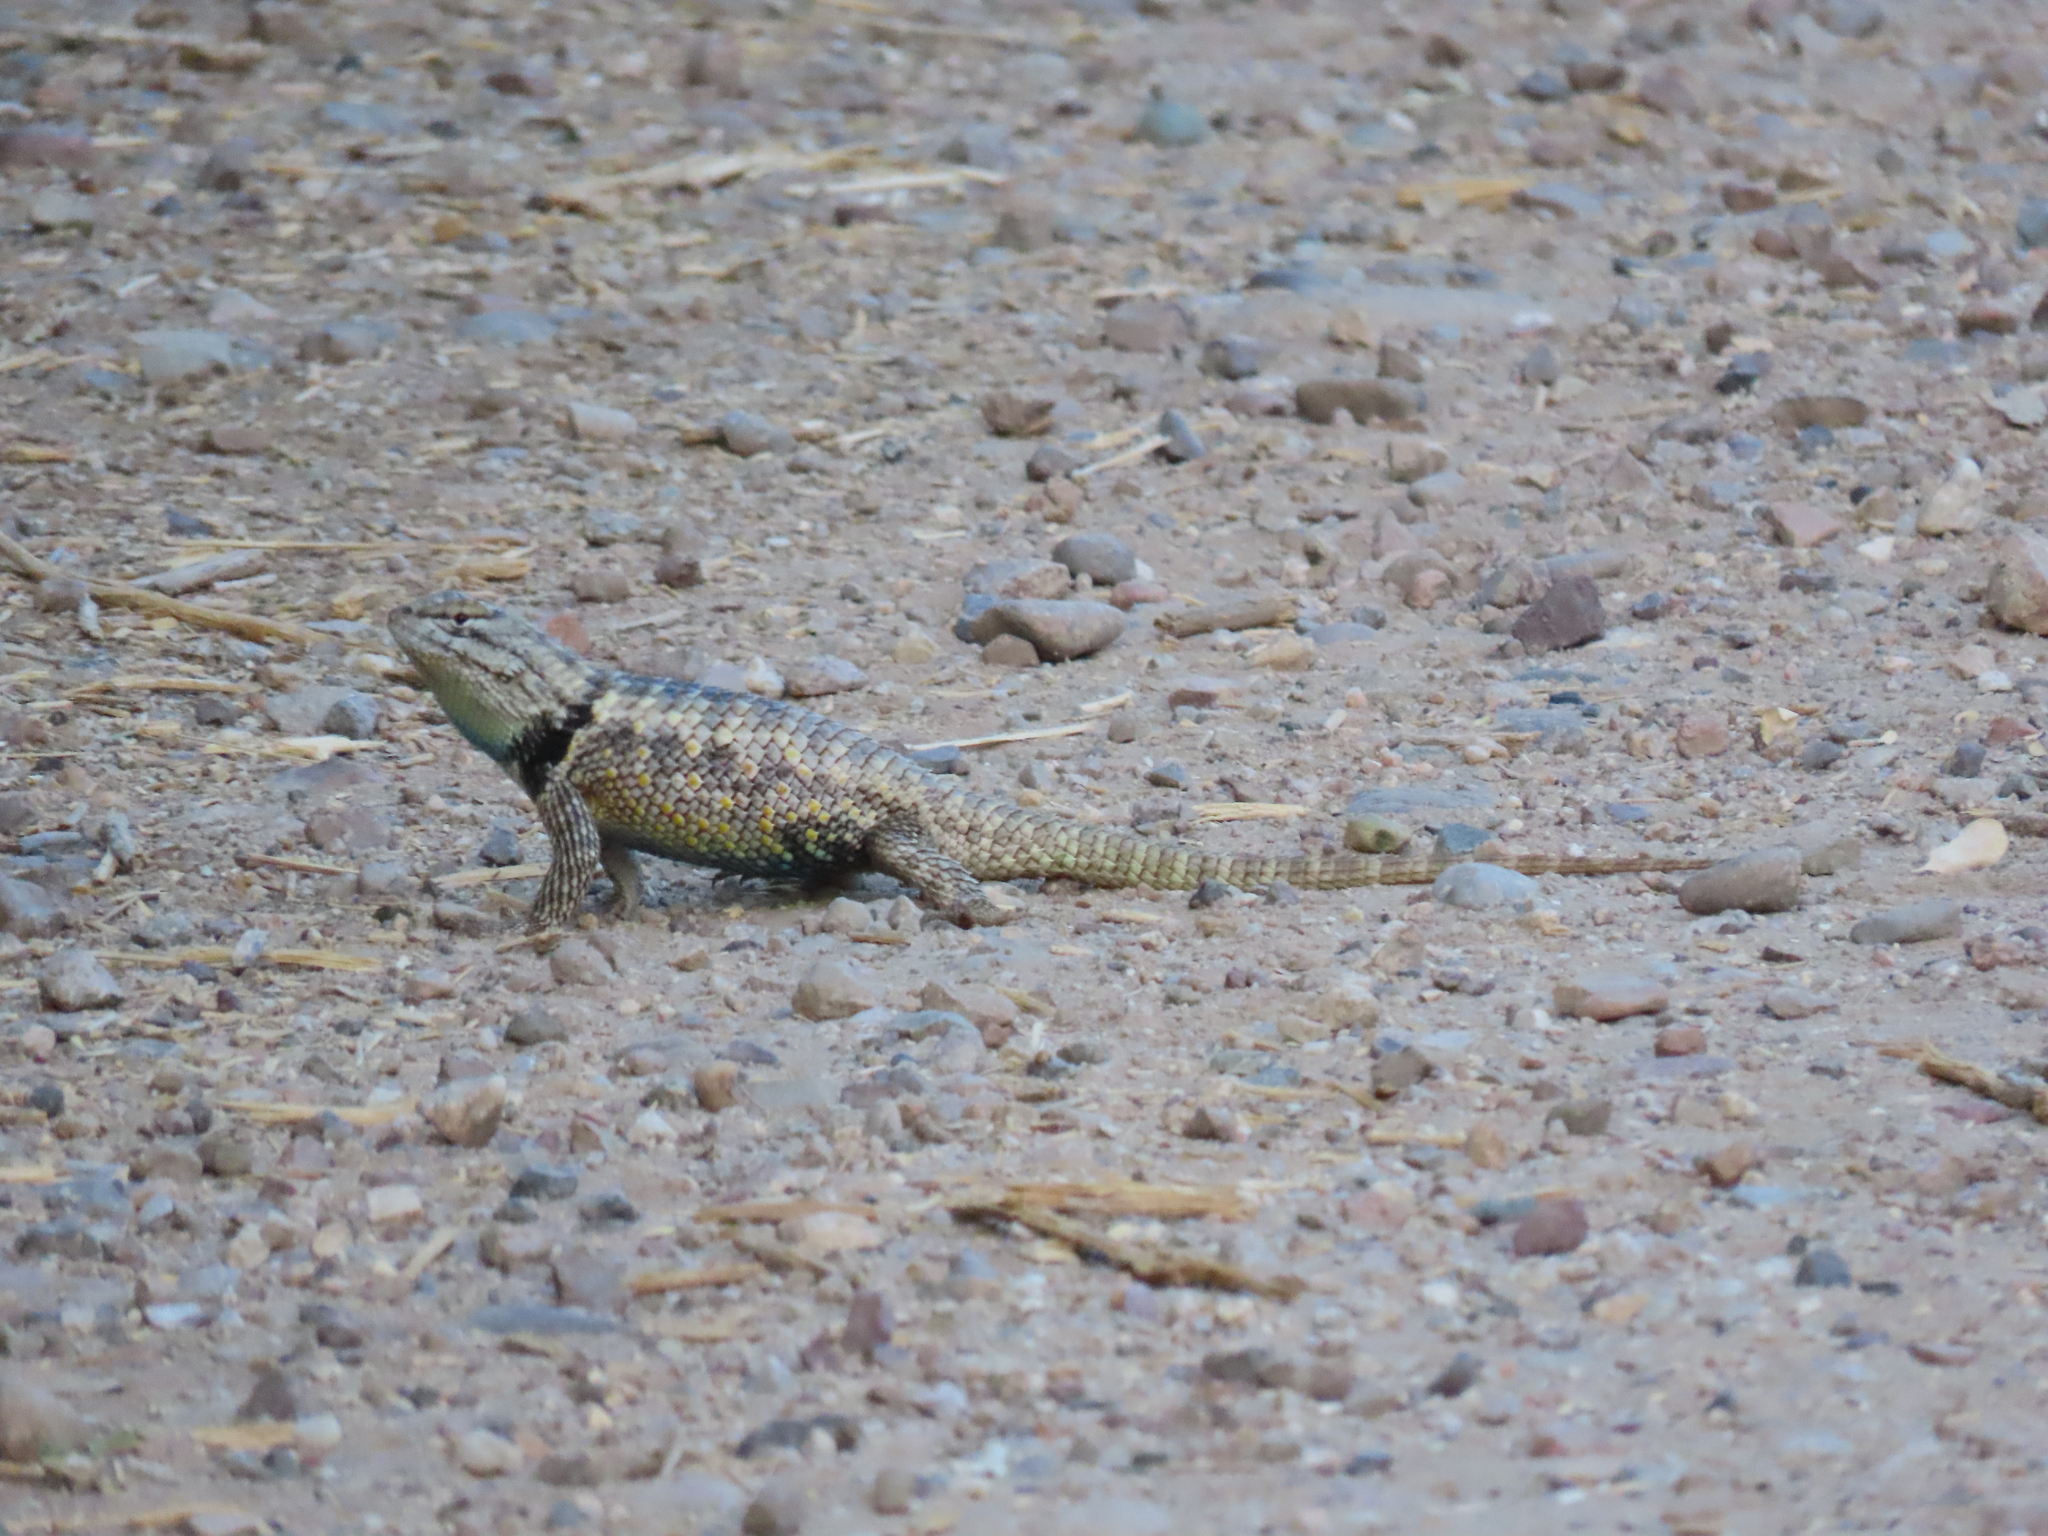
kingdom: Animalia
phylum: Chordata
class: Squamata
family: Phrynosomatidae
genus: Sceloporus
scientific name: Sceloporus magister
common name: Desert spiny lizard
